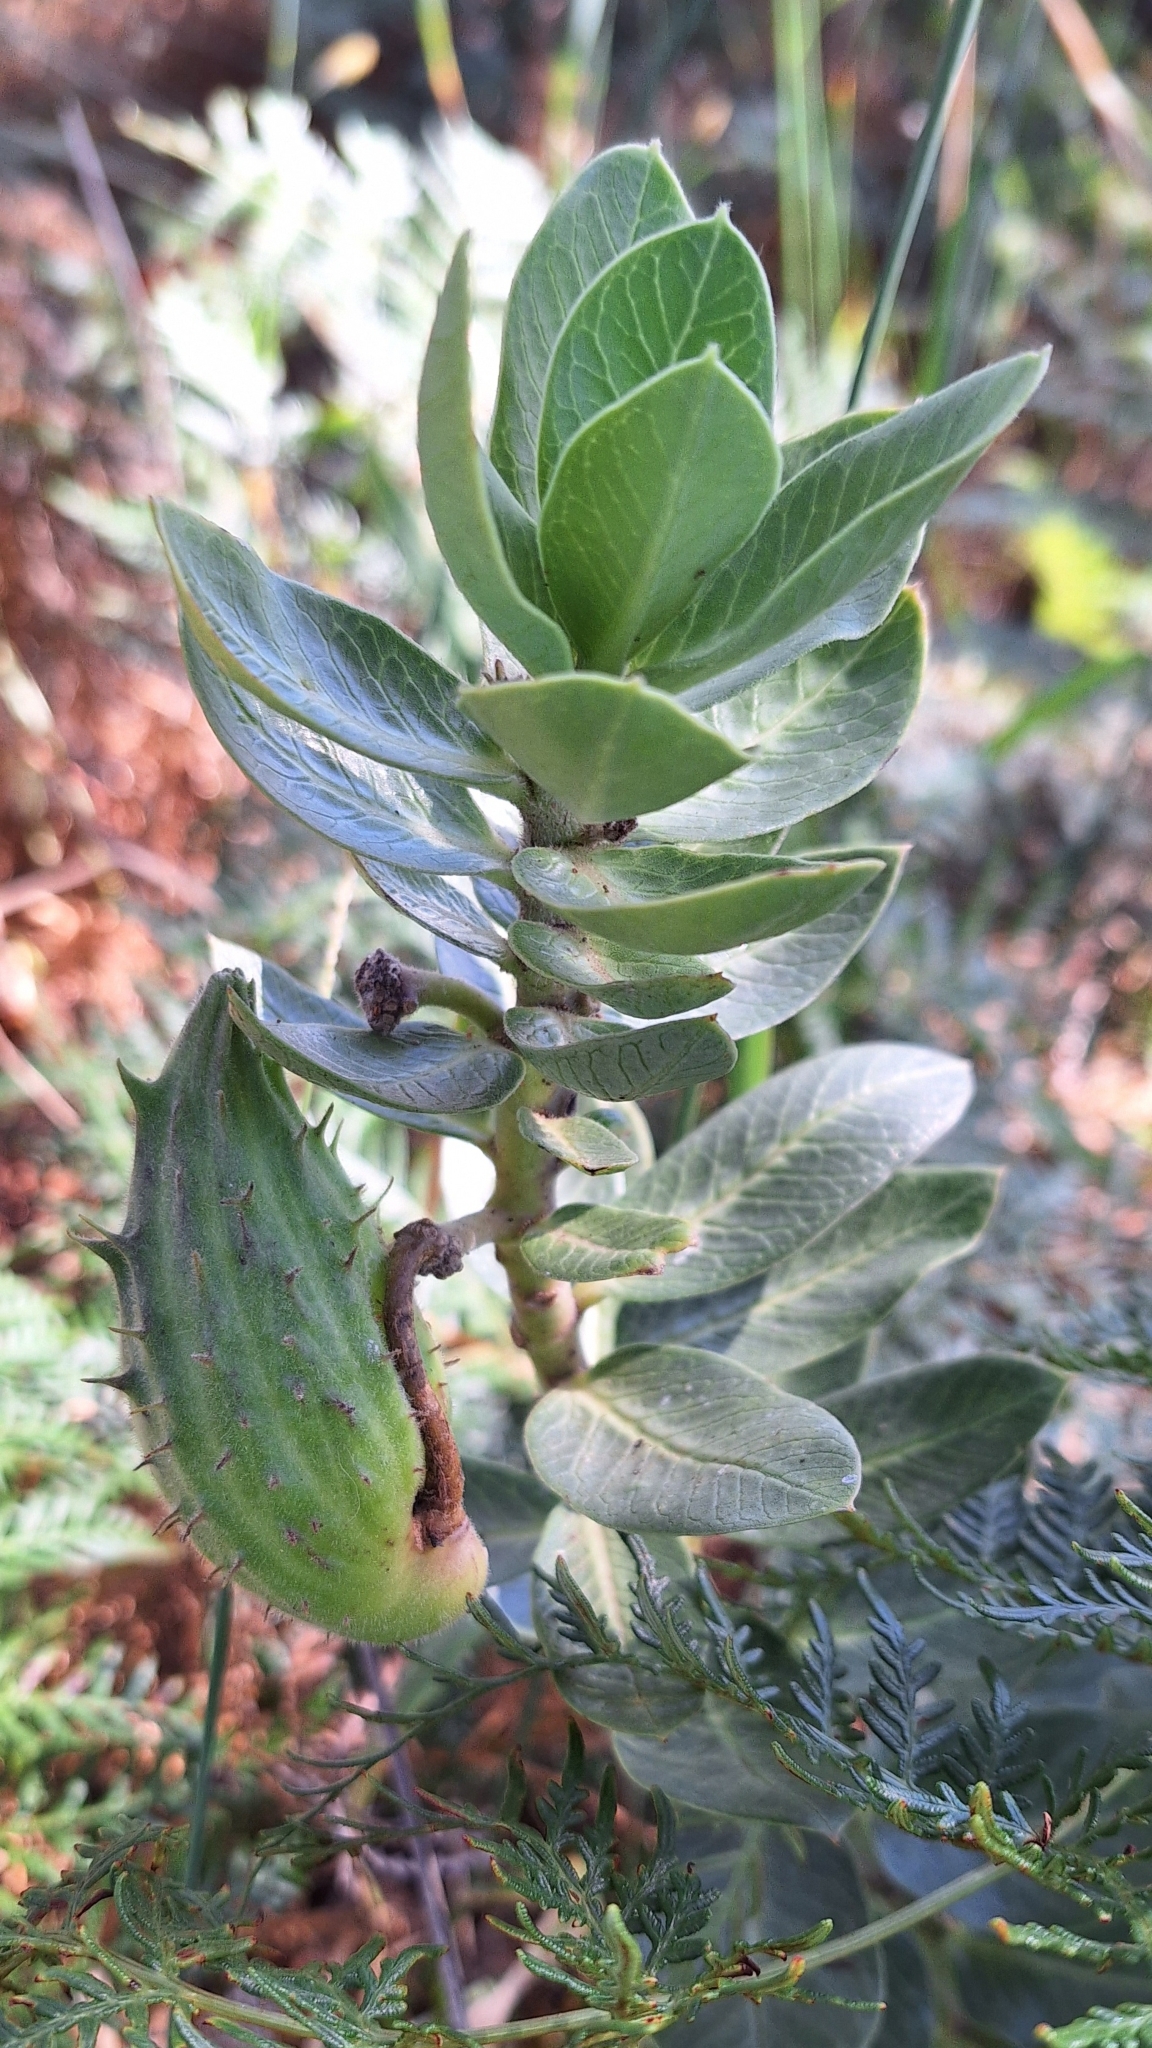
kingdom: Plantae
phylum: Tracheophyta
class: Magnoliopsida
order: Gentianales
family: Apocynaceae
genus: Gomphocarpus
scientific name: Gomphocarpus cancellatus
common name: Wild cotton
